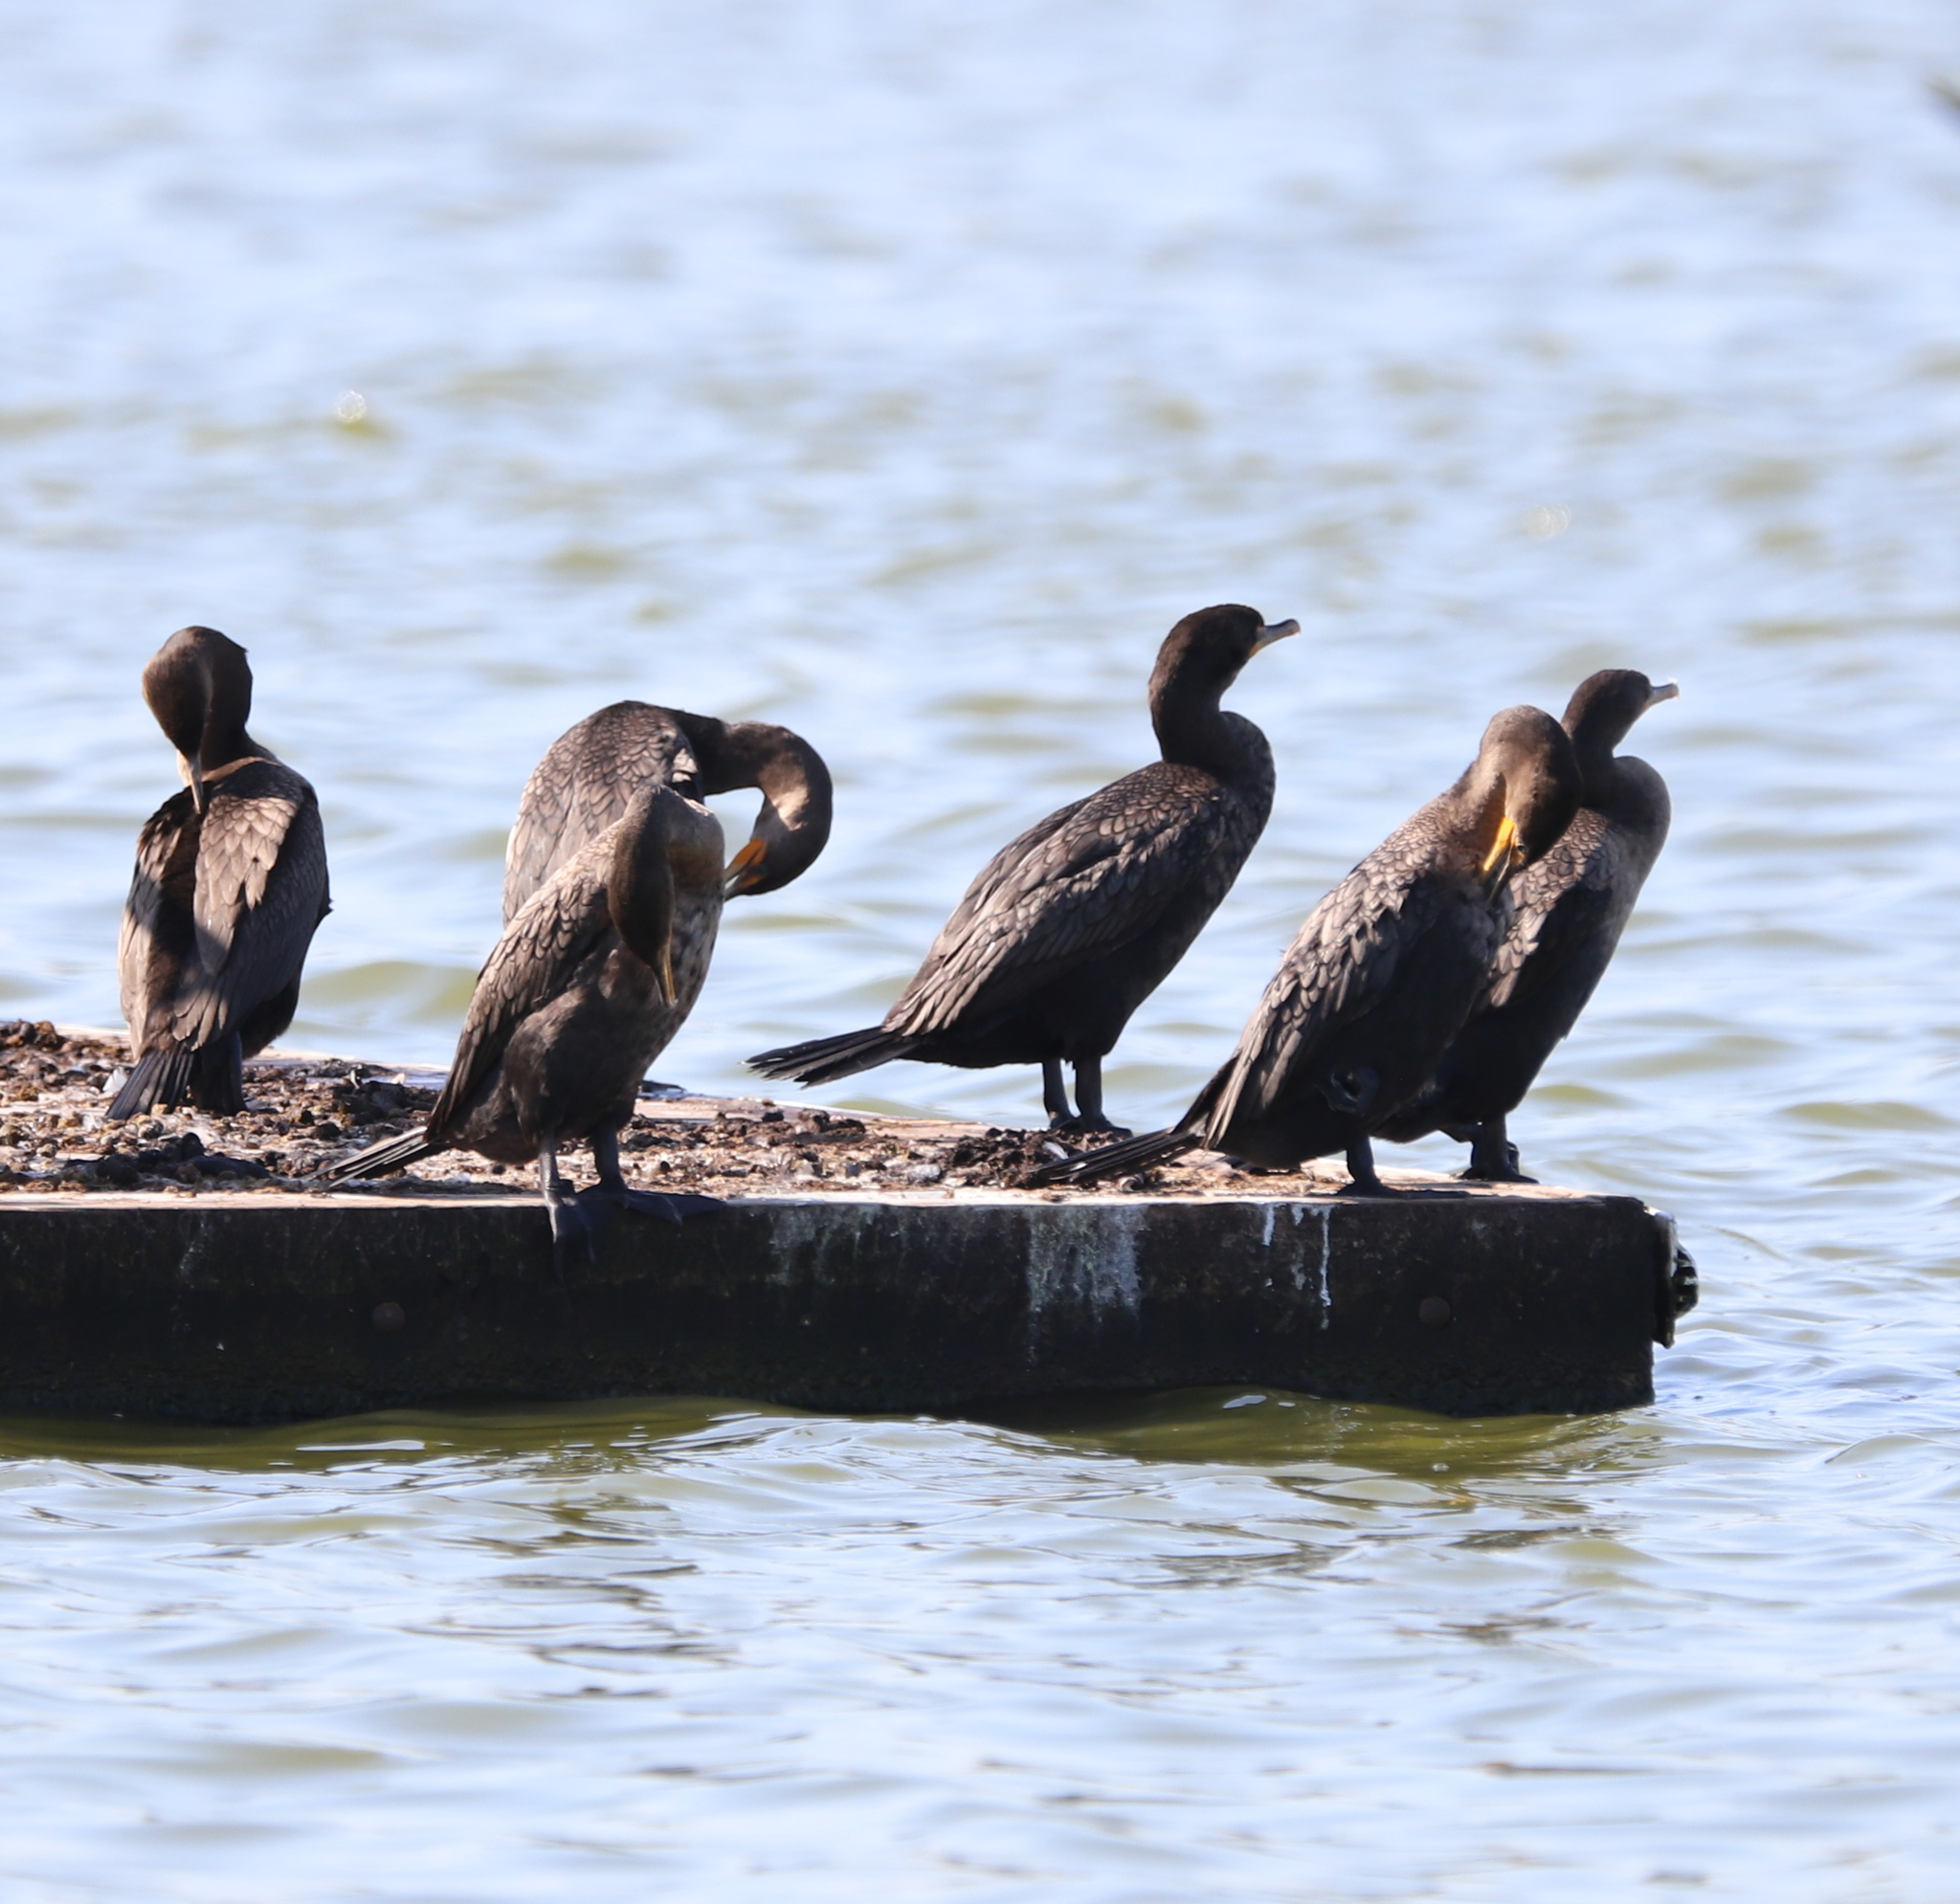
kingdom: Animalia
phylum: Chordata
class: Aves
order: Suliformes
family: Phalacrocoracidae
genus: Phalacrocorax
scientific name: Phalacrocorax auritus
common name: Double-crested cormorant
